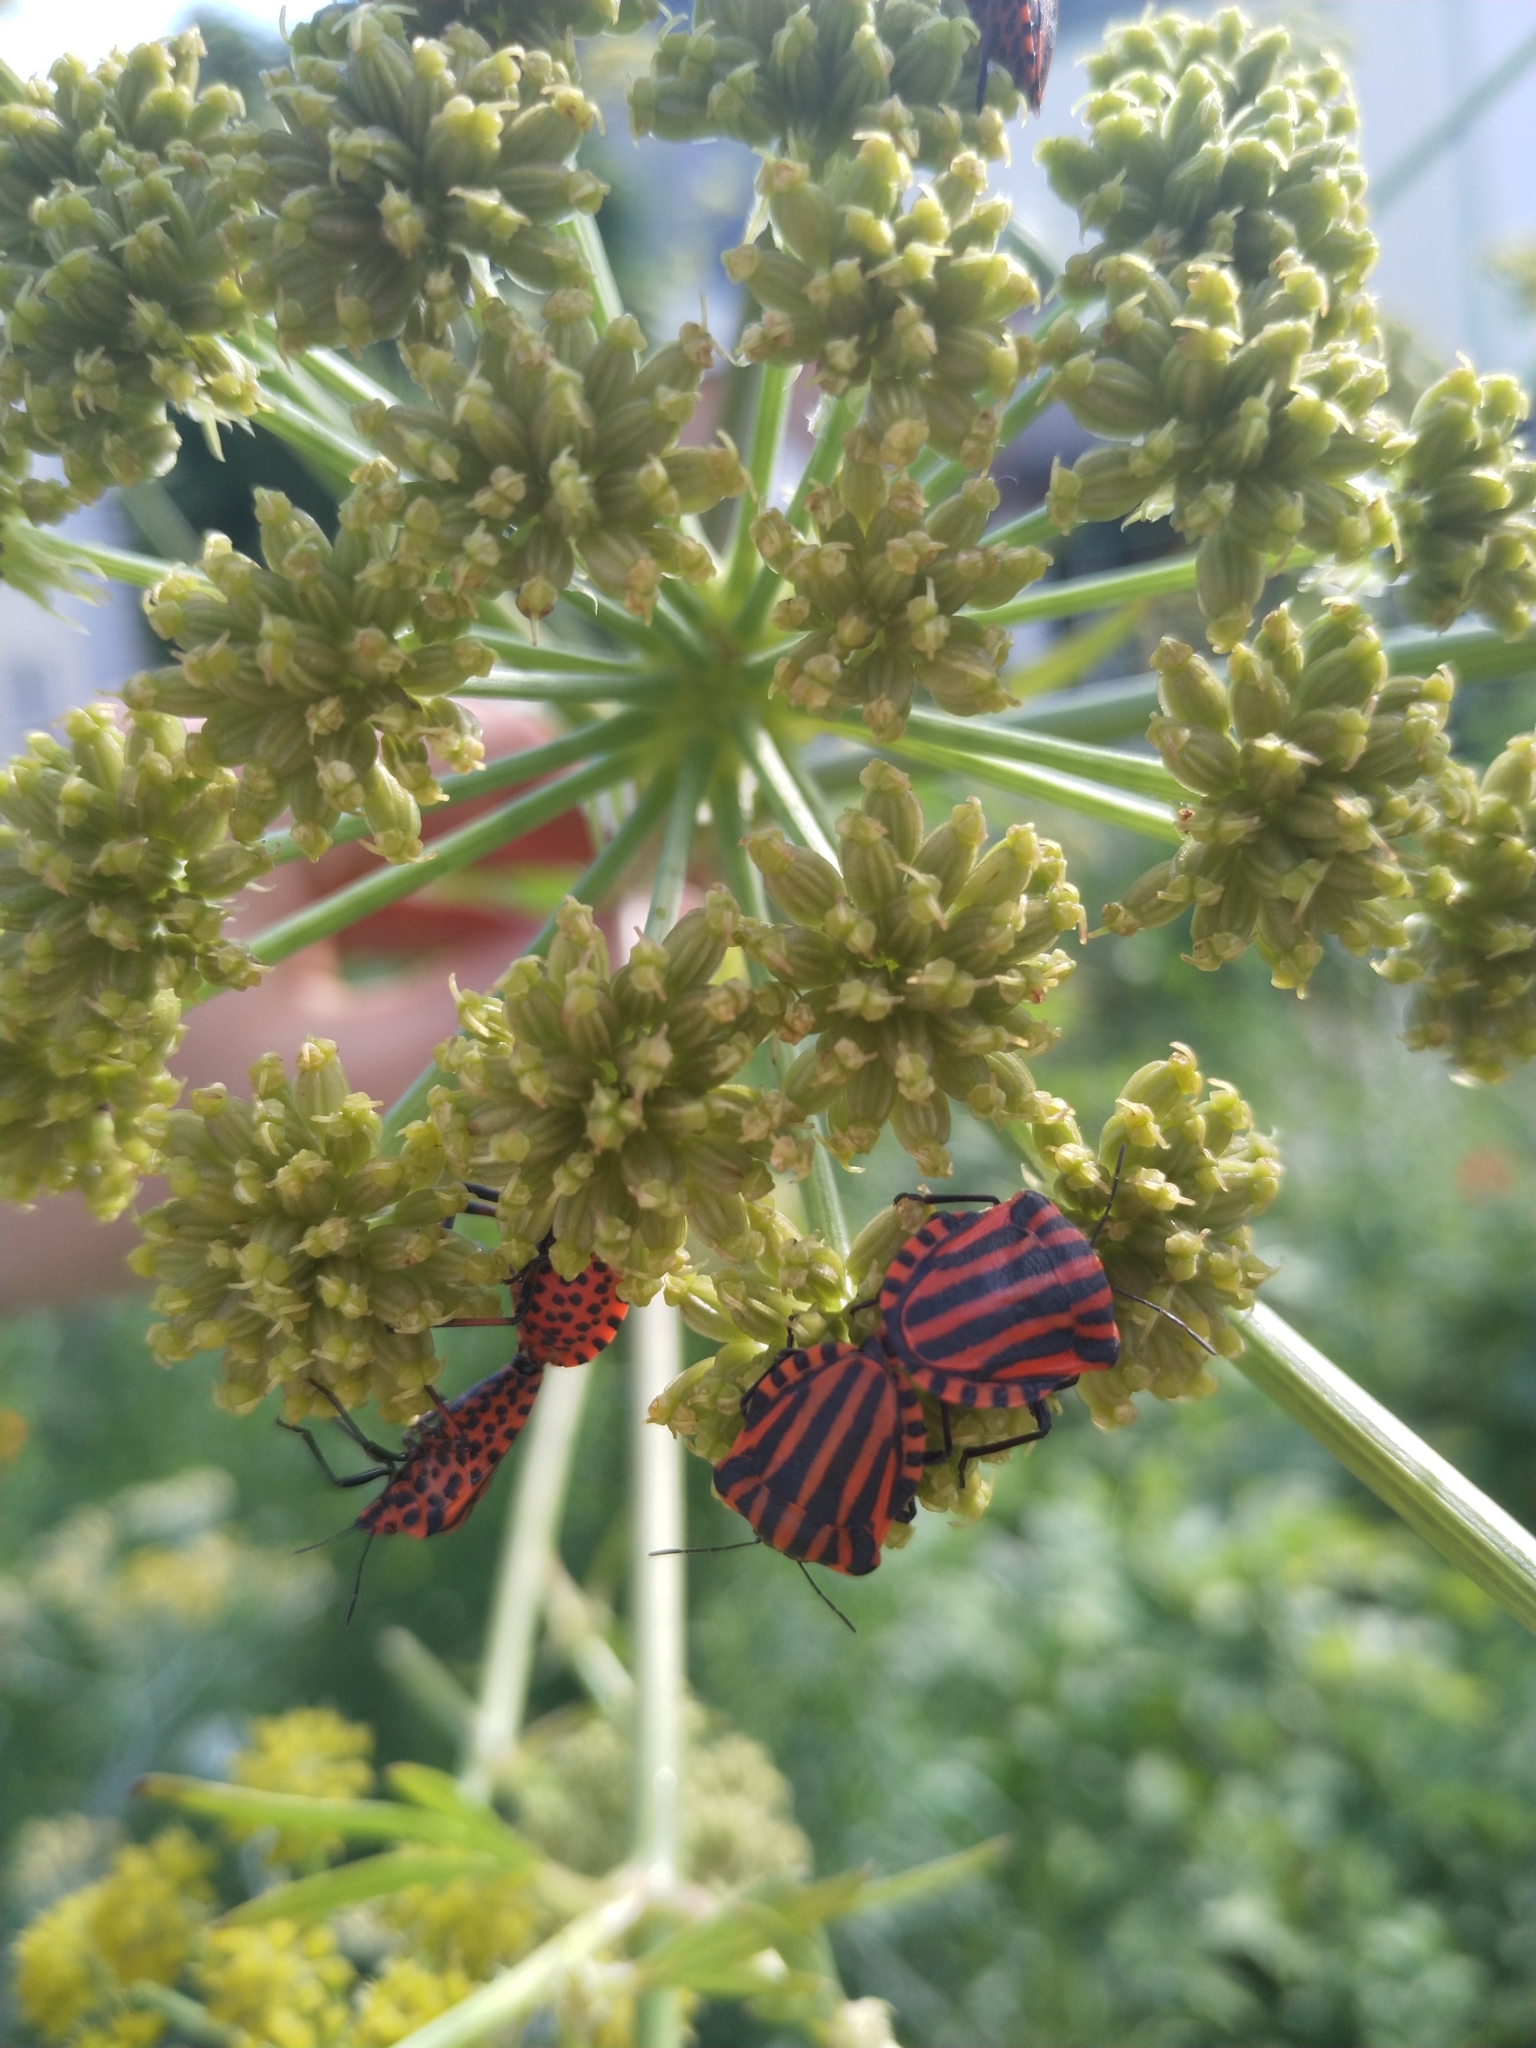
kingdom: Animalia
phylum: Arthropoda
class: Insecta
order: Hemiptera
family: Pentatomidae
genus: Graphosoma
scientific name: Graphosoma italicum
